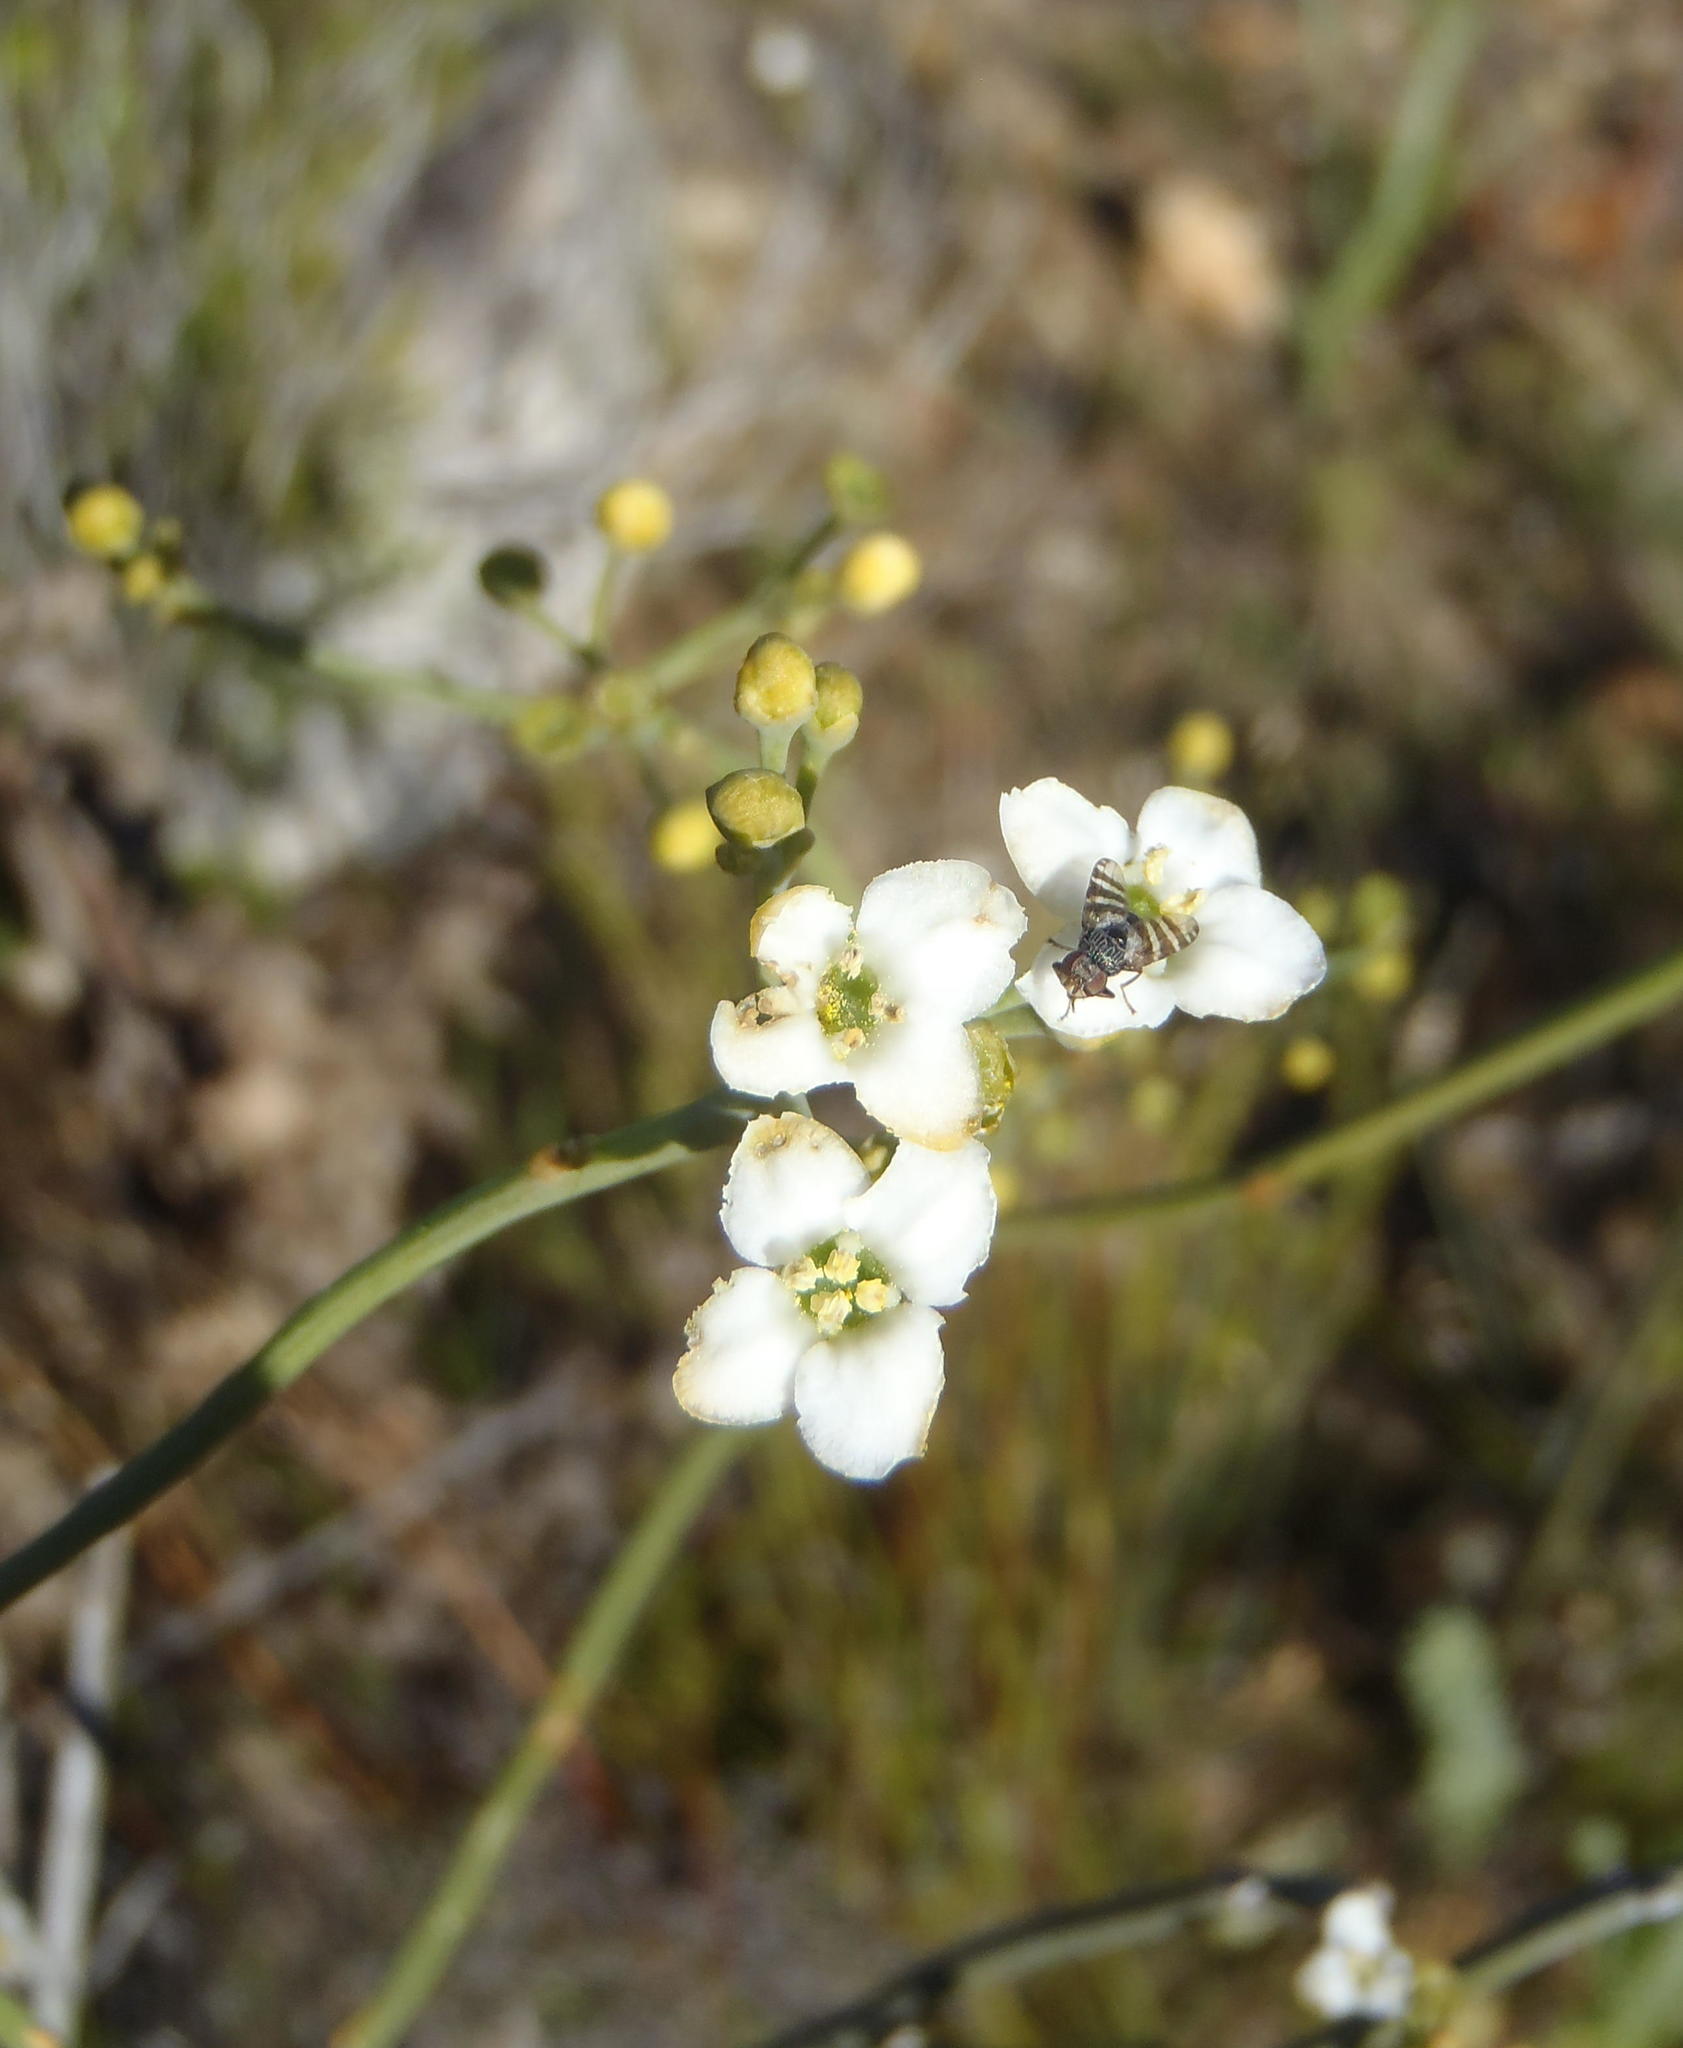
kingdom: Plantae
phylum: Tracheophyta
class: Magnoliopsida
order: Solanales
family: Montiniaceae
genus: Montinia
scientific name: Montinia caryophyllacea
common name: Wild clove-bush
